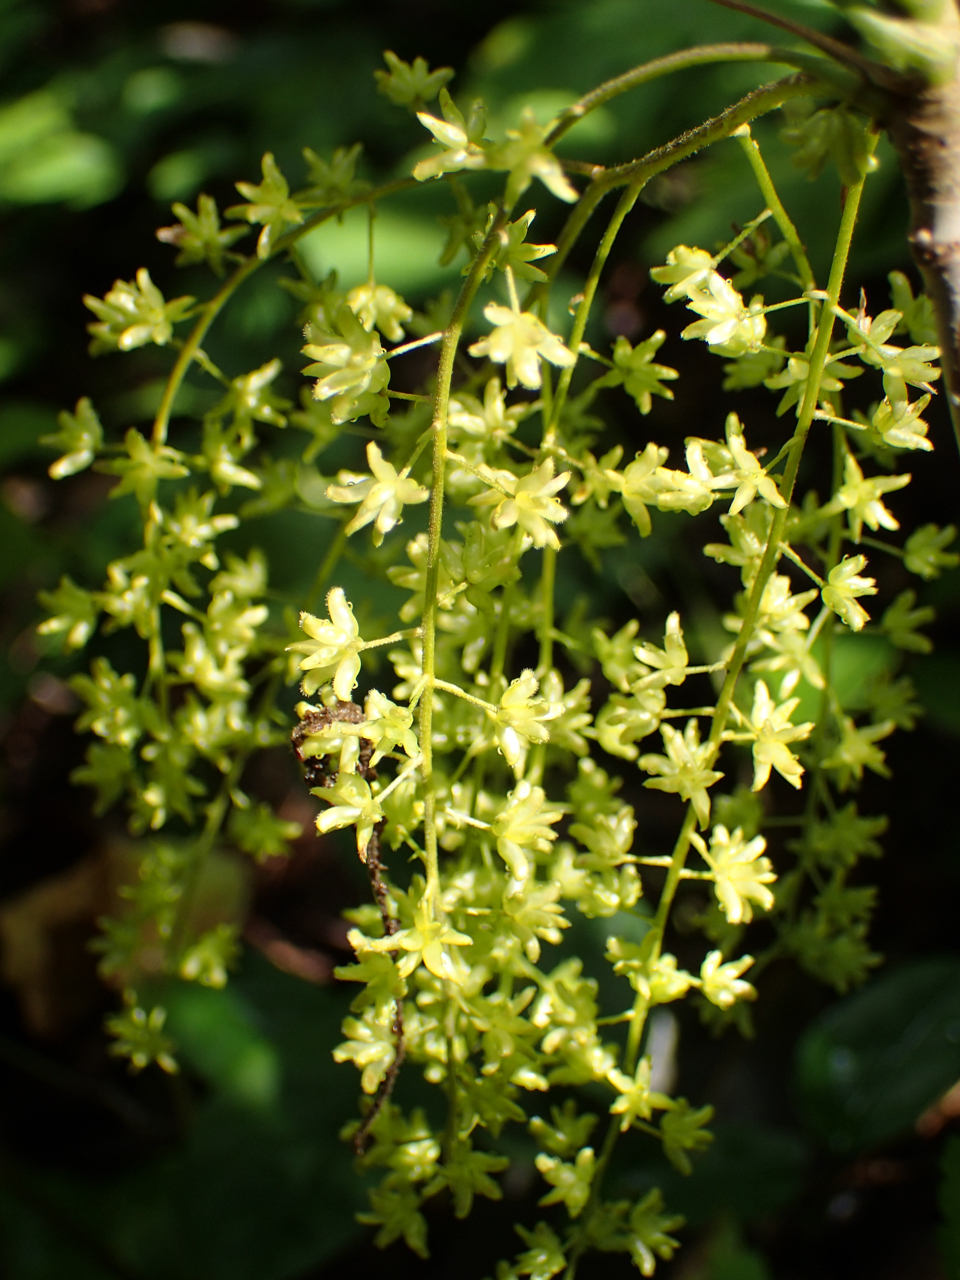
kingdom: Plantae
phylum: Tracheophyta
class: Magnoliopsida
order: Ranunculales
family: Ranunculaceae
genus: Xanthorhiza
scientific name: Xanthorhiza simplicissima
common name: Yellowroot
